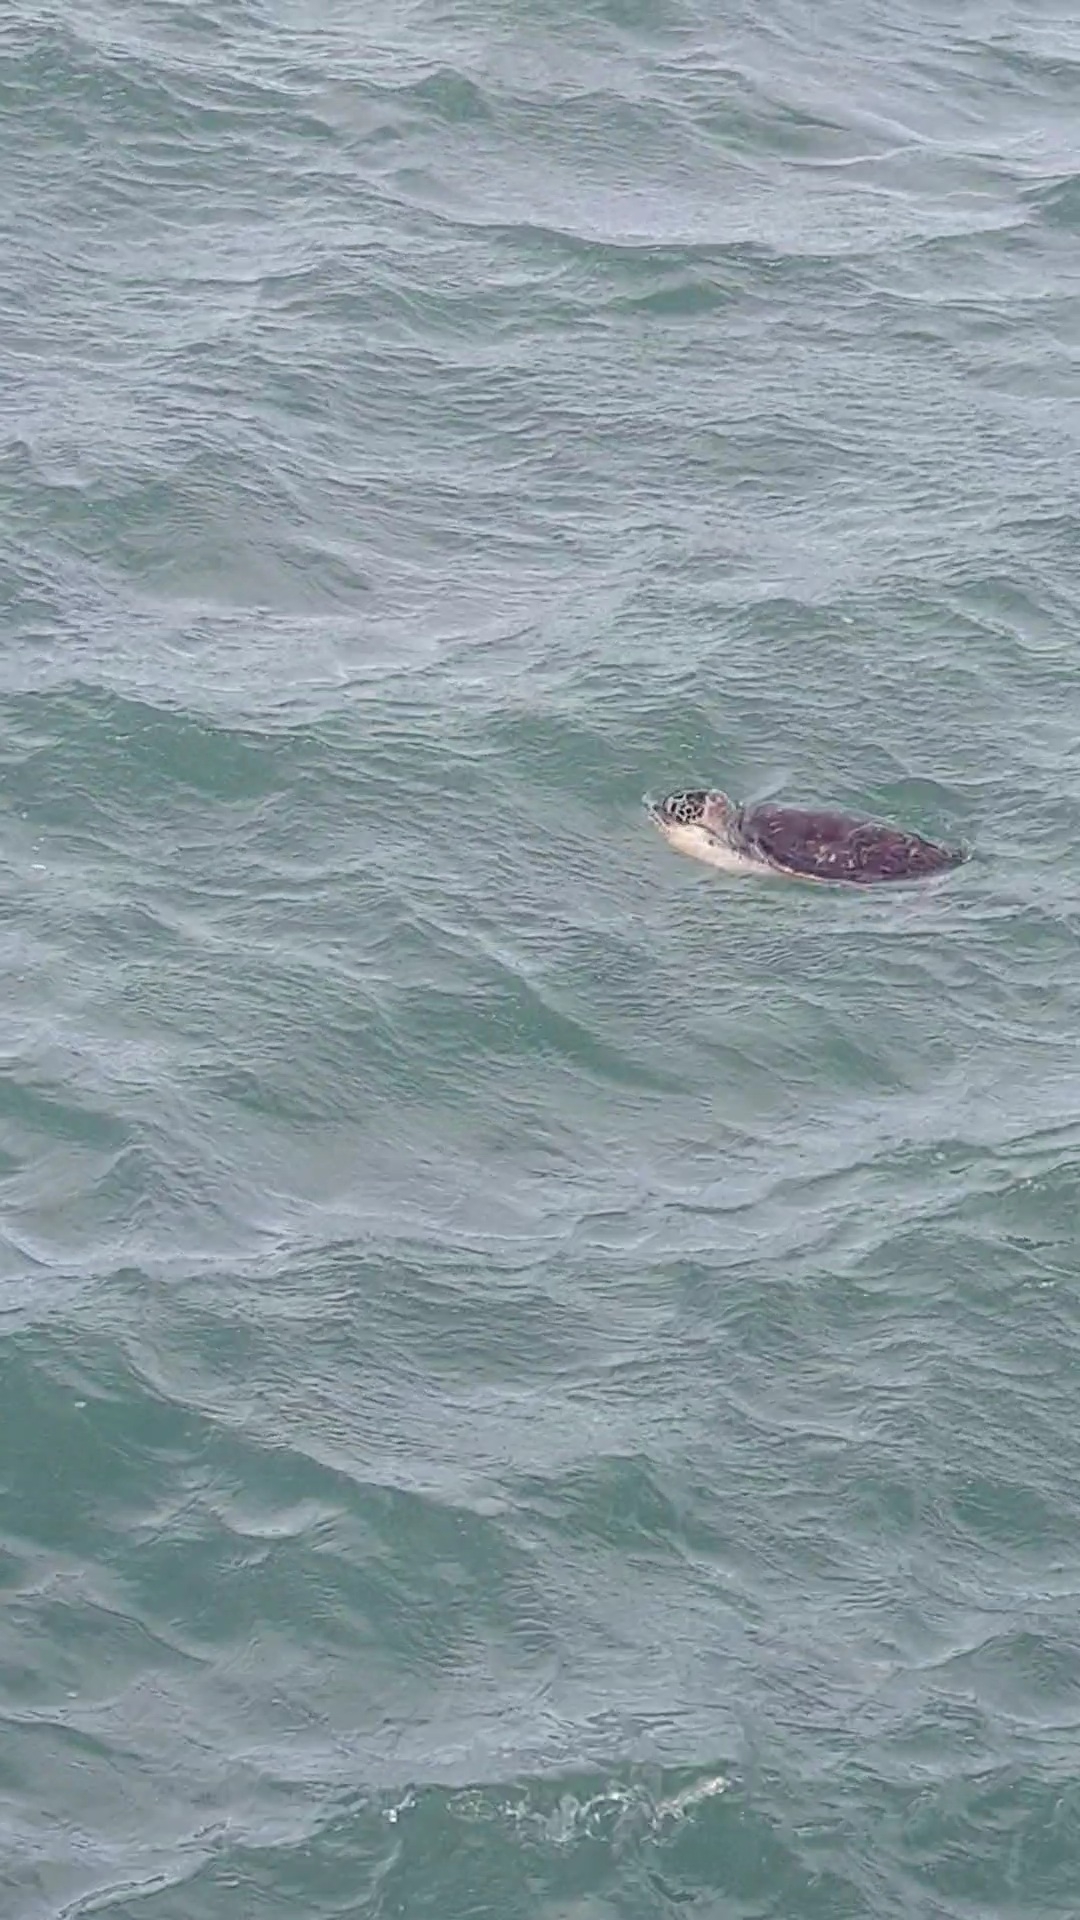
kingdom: Animalia
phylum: Chordata
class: Testudines
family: Cheloniidae
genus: Chelonia
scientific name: Chelonia mydas
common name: Green turtle
